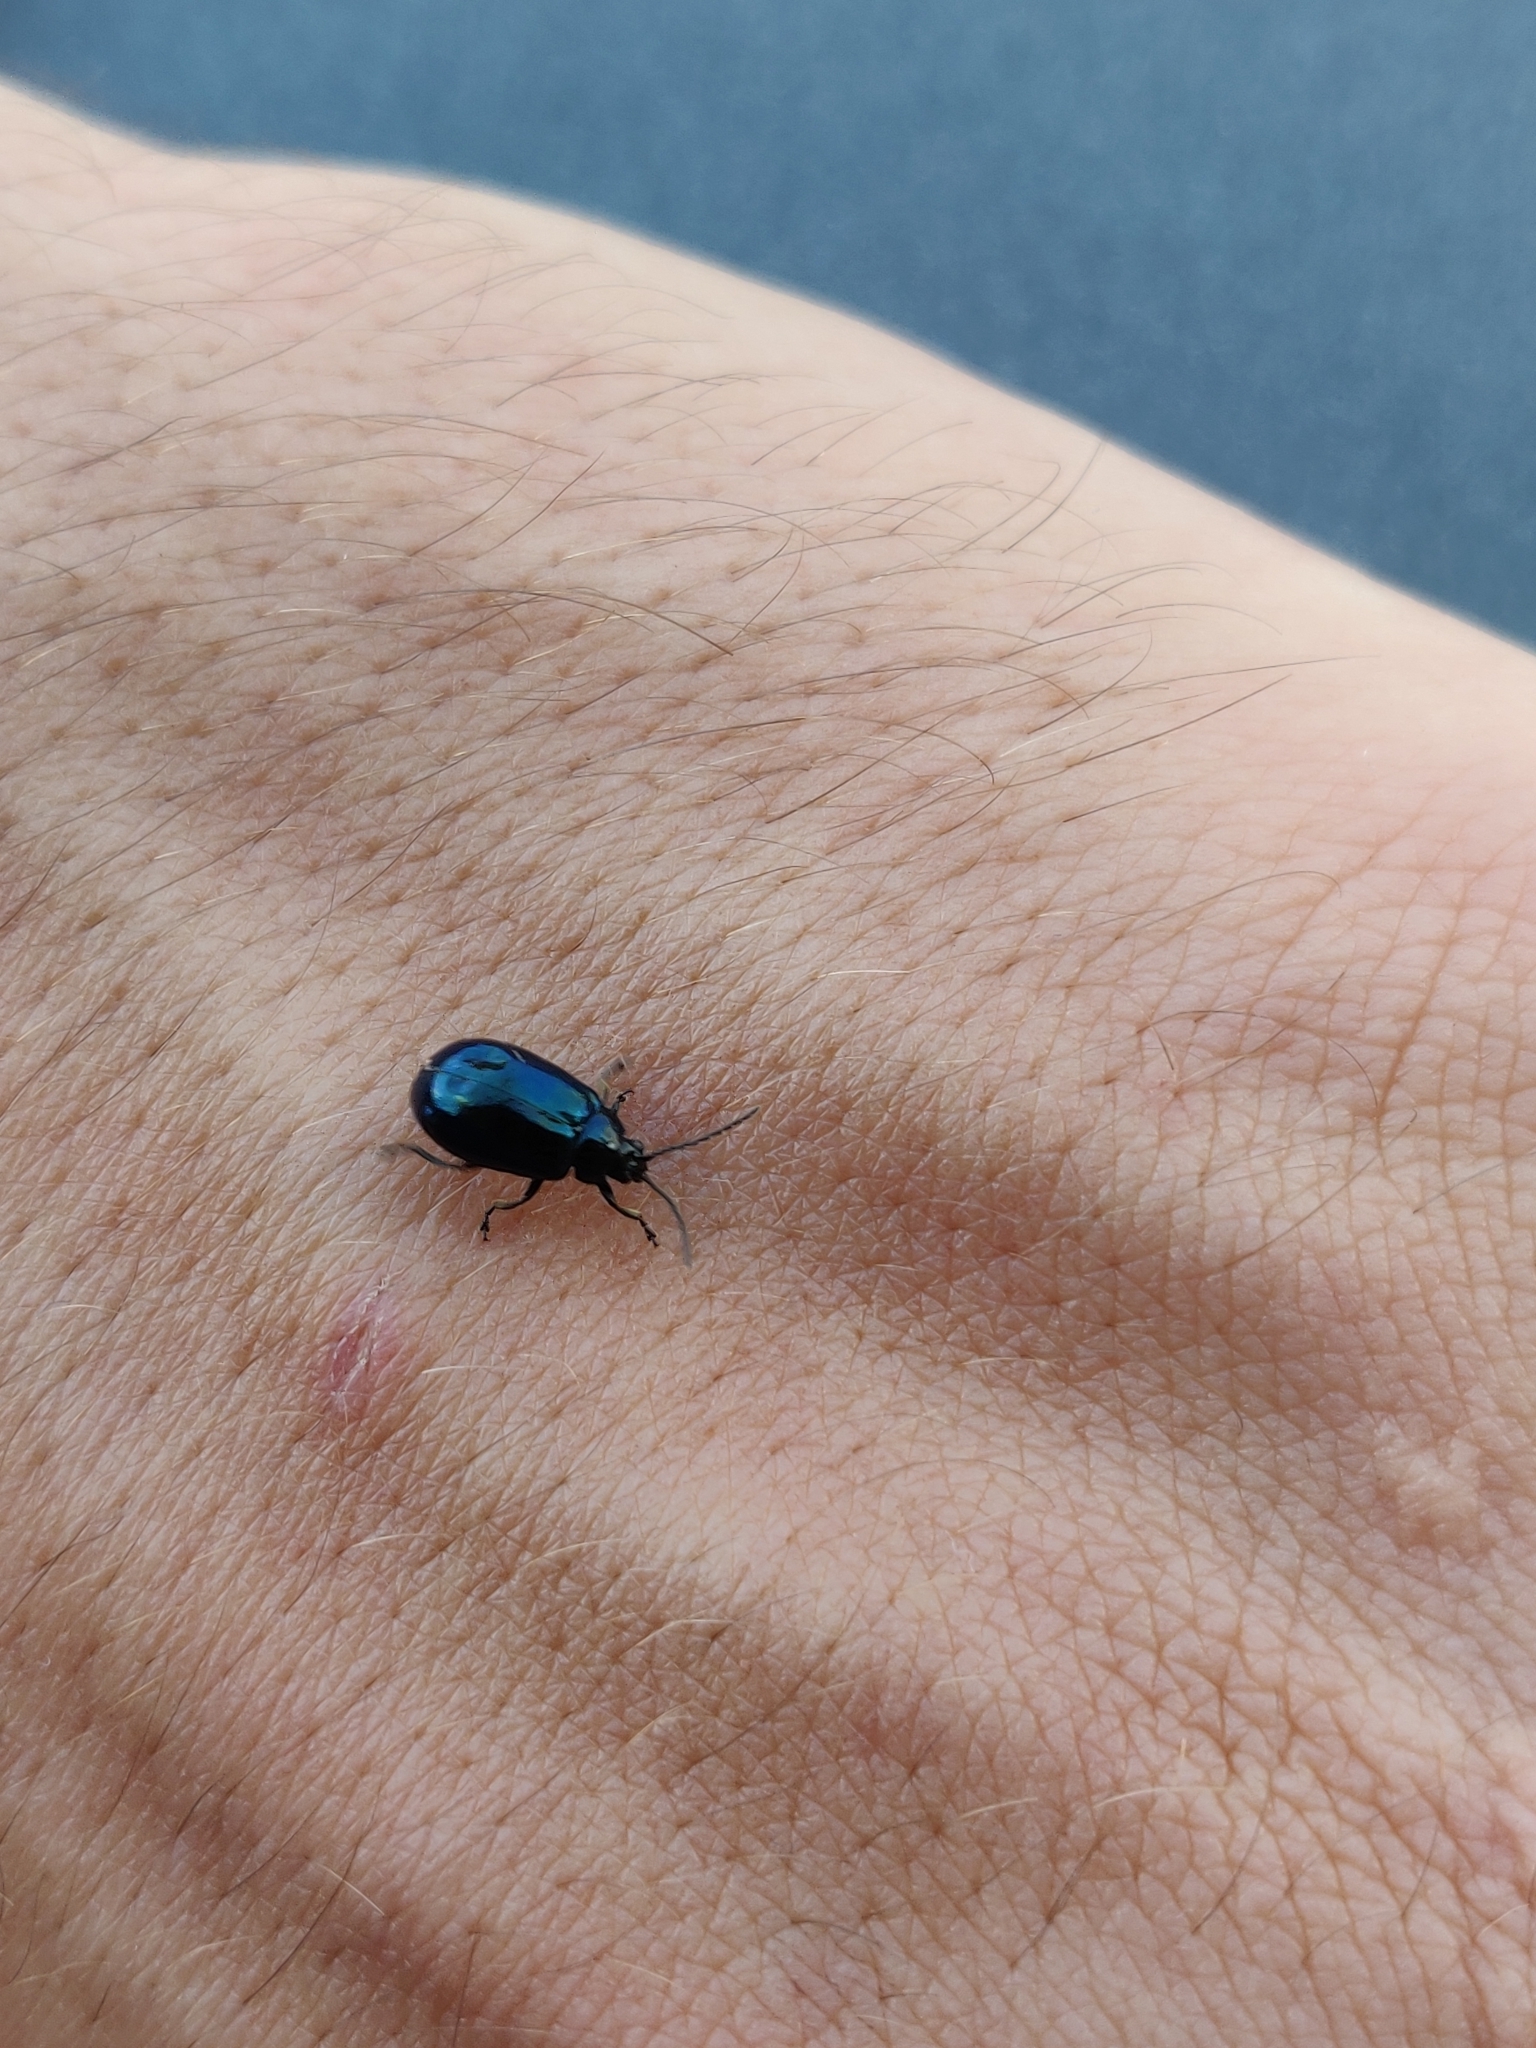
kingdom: Animalia
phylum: Arthropoda
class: Insecta
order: Coleoptera
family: Chrysomelidae
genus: Agelastica
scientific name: Agelastica alni
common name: Alder leaf beetle
